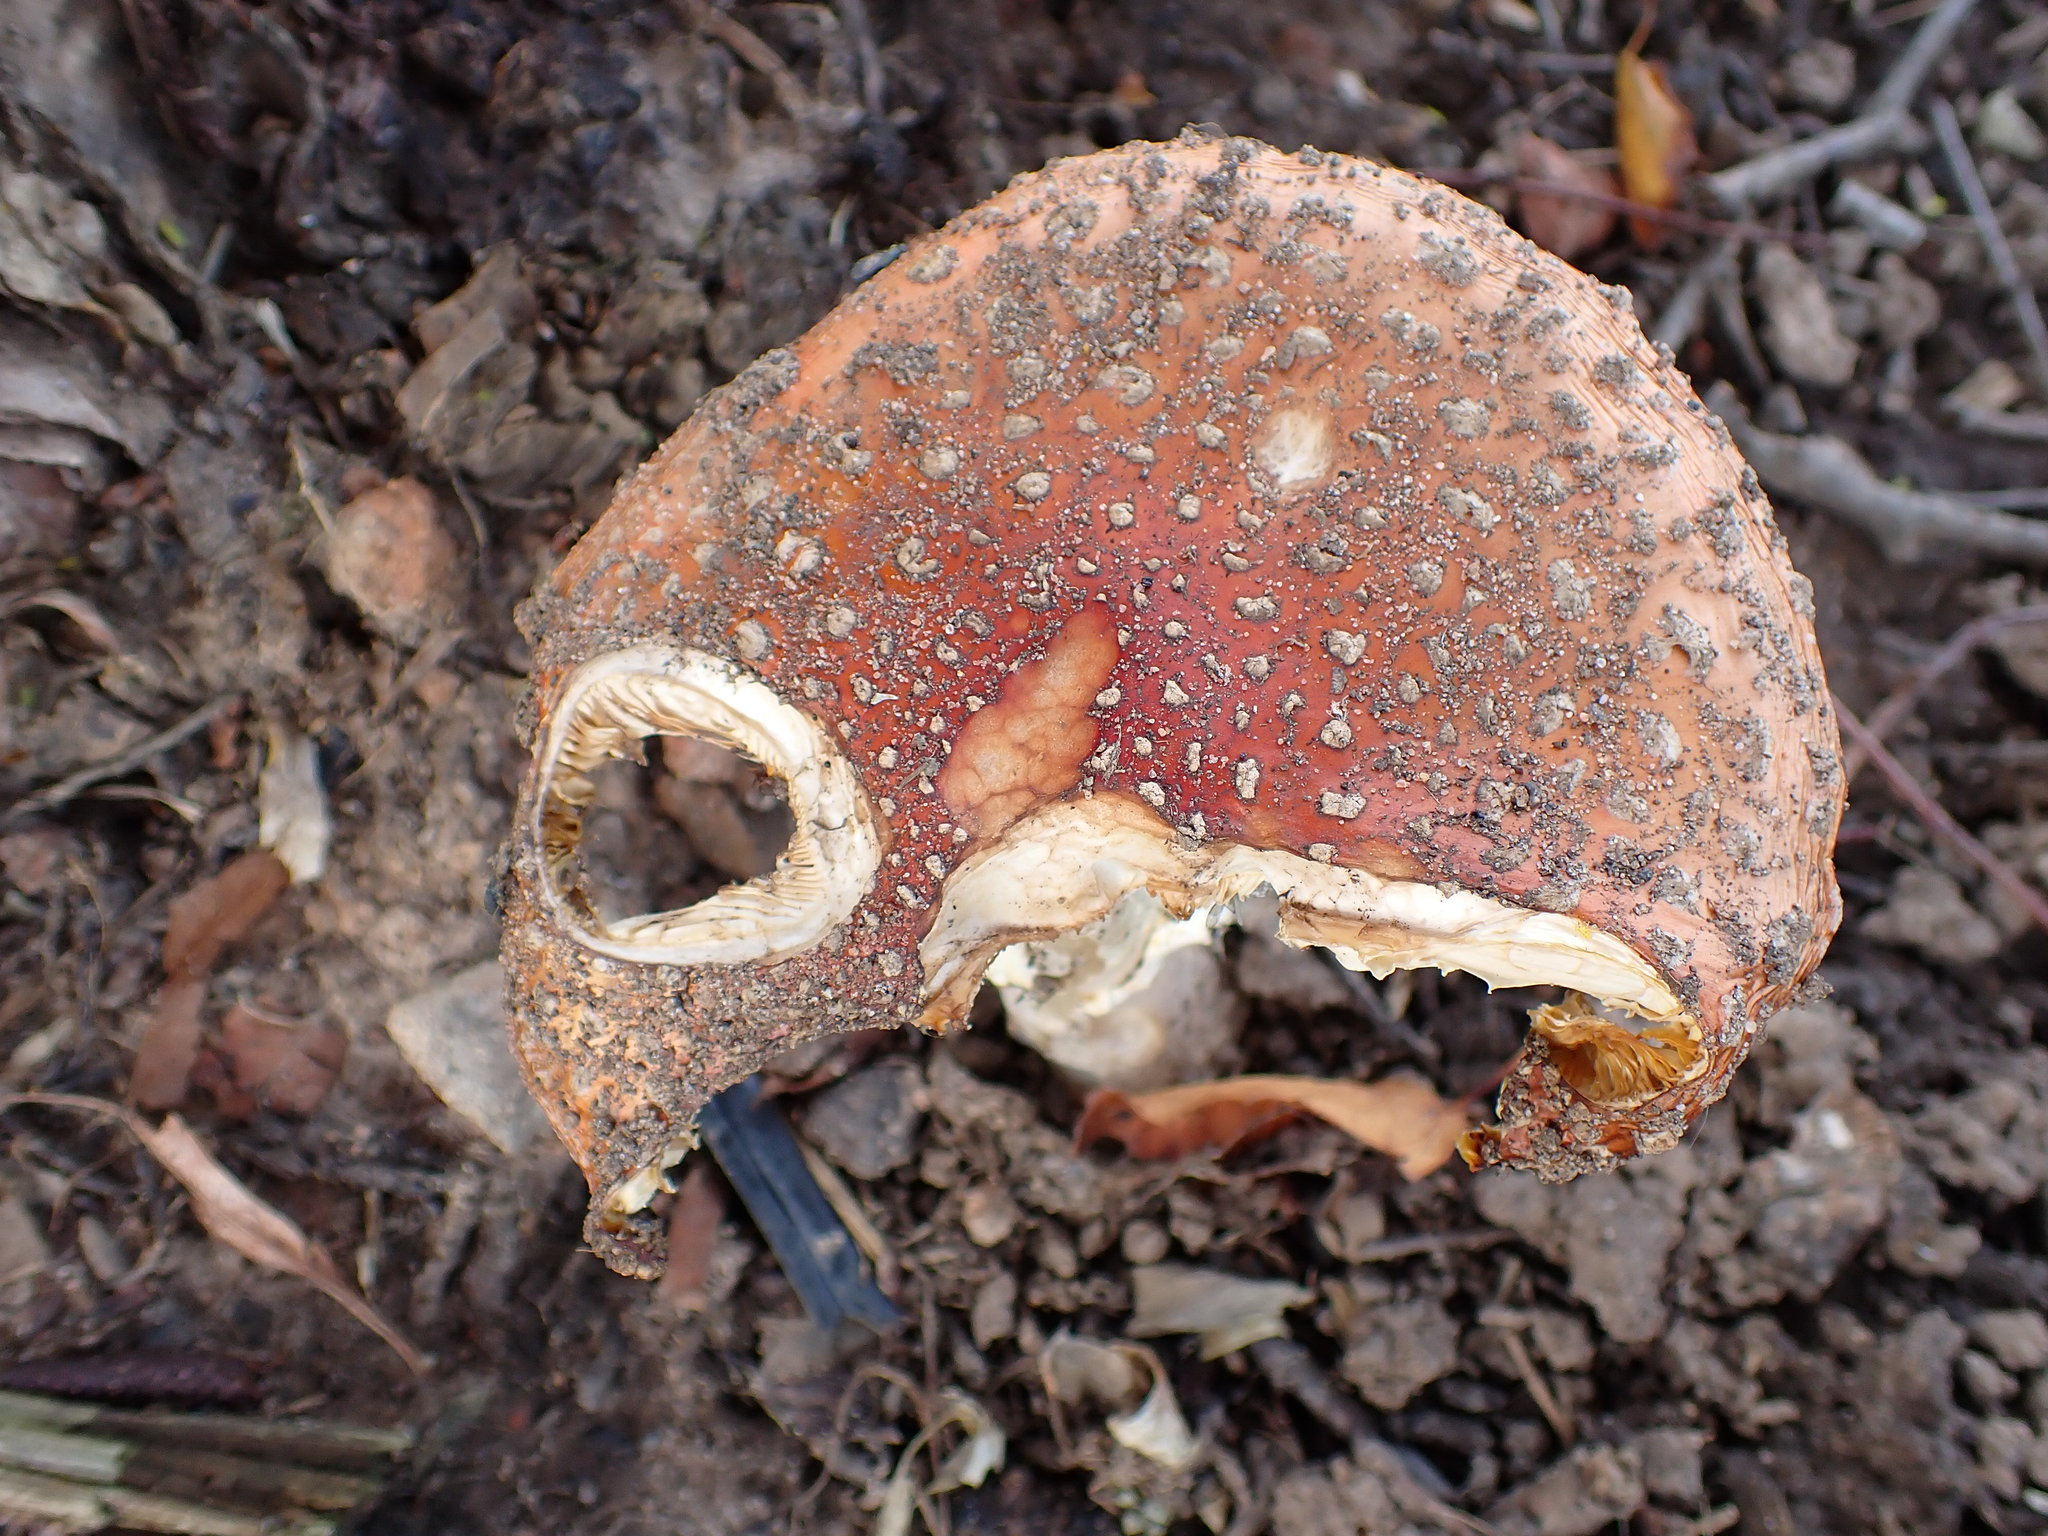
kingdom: Fungi
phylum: Basidiomycota
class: Agaricomycetes
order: Agaricales
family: Amanitaceae
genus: Amanita
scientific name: Amanita muscaria
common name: Fly agaric
